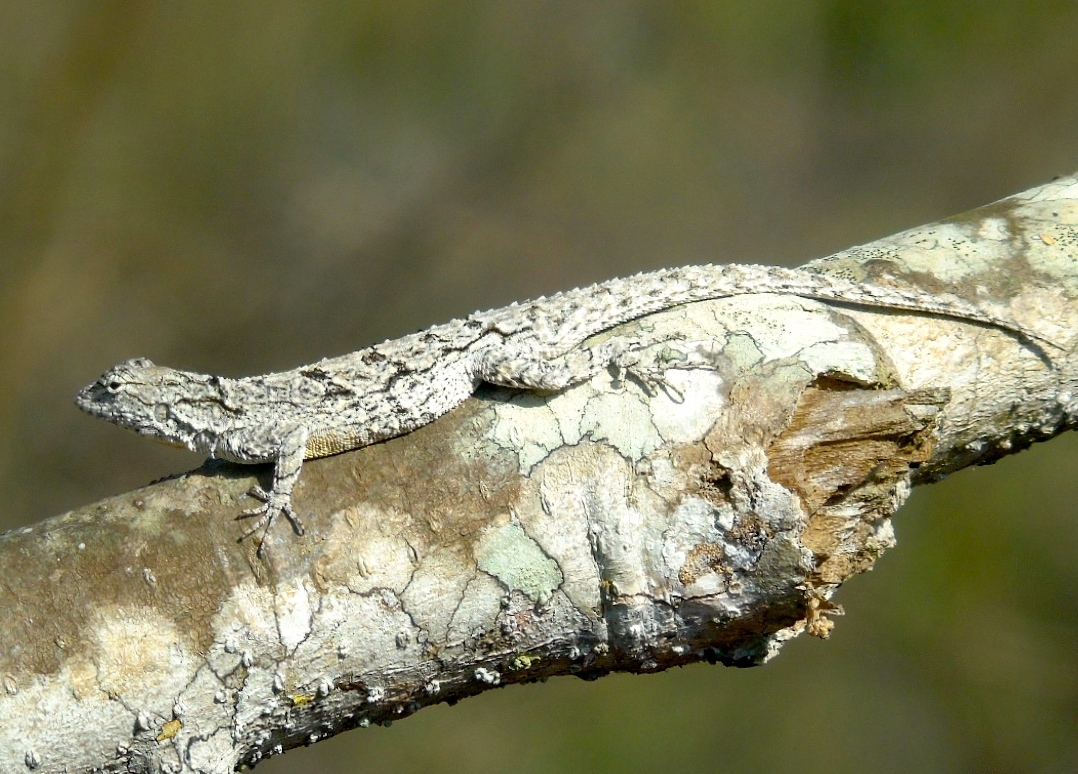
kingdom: Animalia
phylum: Chordata
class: Squamata
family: Phrynosomatidae
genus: Urosaurus
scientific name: Urosaurus bicarinatus
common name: Tropical tree lizard
